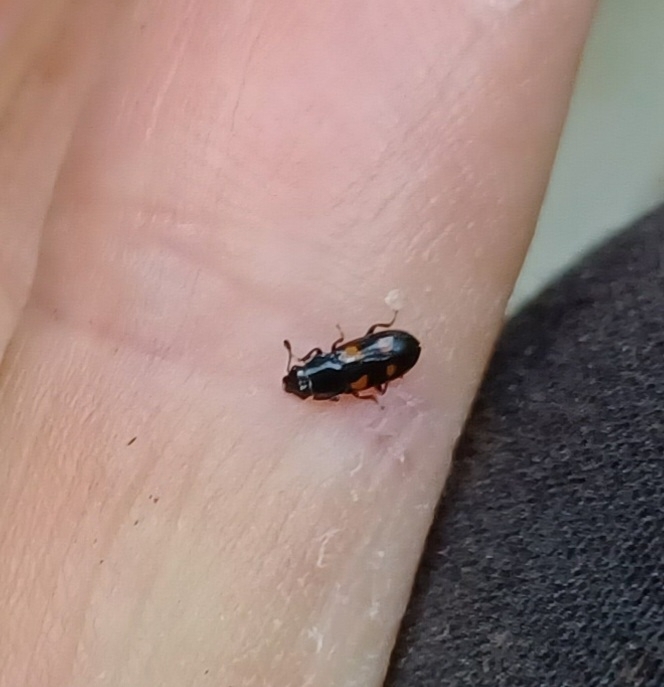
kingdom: Animalia
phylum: Arthropoda
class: Insecta
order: Coleoptera
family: Nitidulidae
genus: Glischrochilus
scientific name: Glischrochilus quadripunctatus
